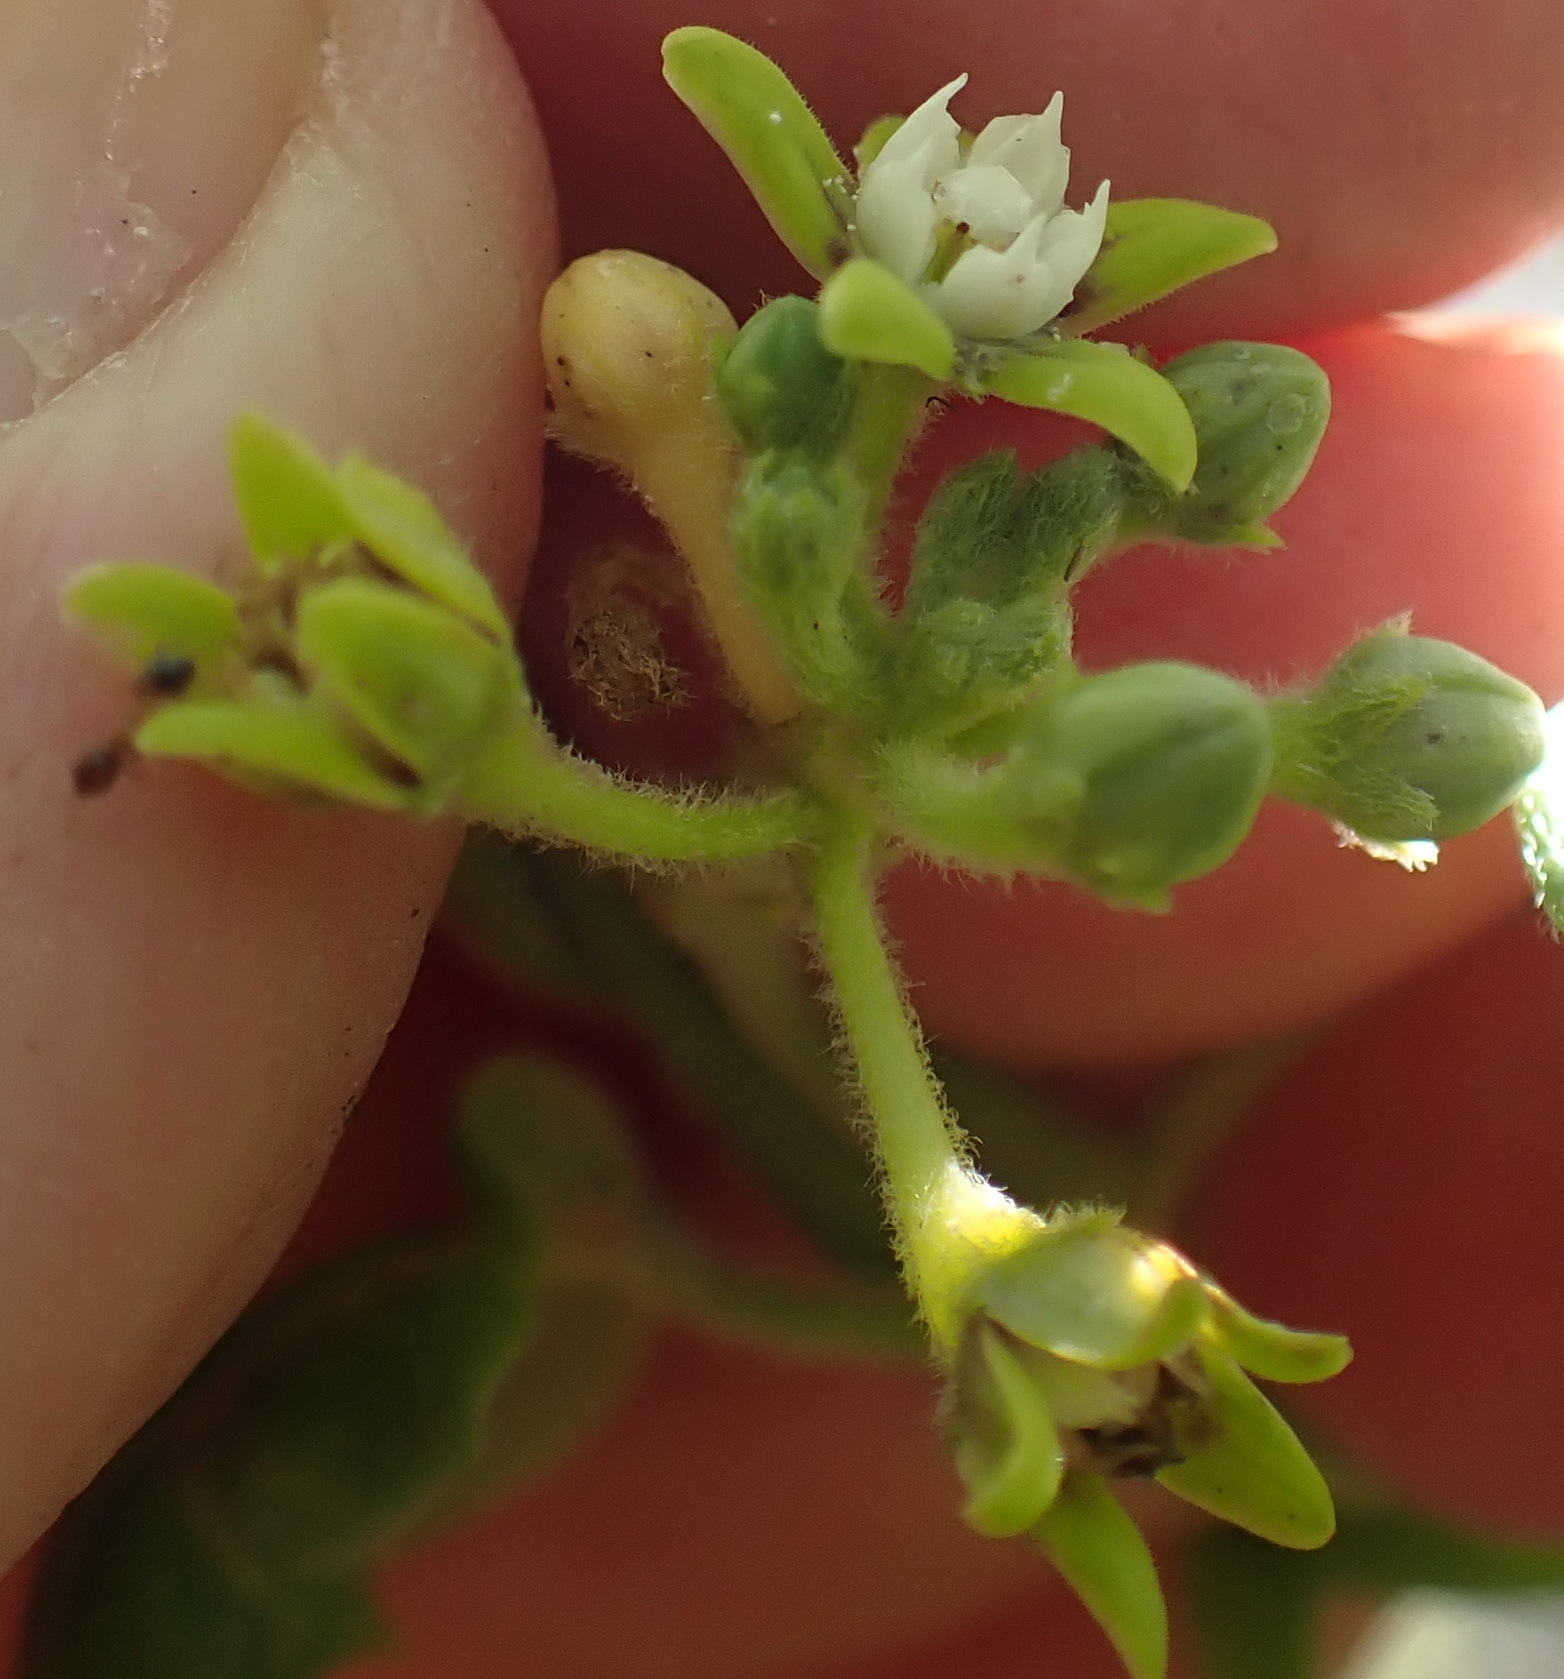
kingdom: Plantae
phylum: Tracheophyta
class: Magnoliopsida
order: Gentianales
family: Apocynaceae
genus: Cynanchum
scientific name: Cynanchum obtusifolium
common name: Monkey-rope
